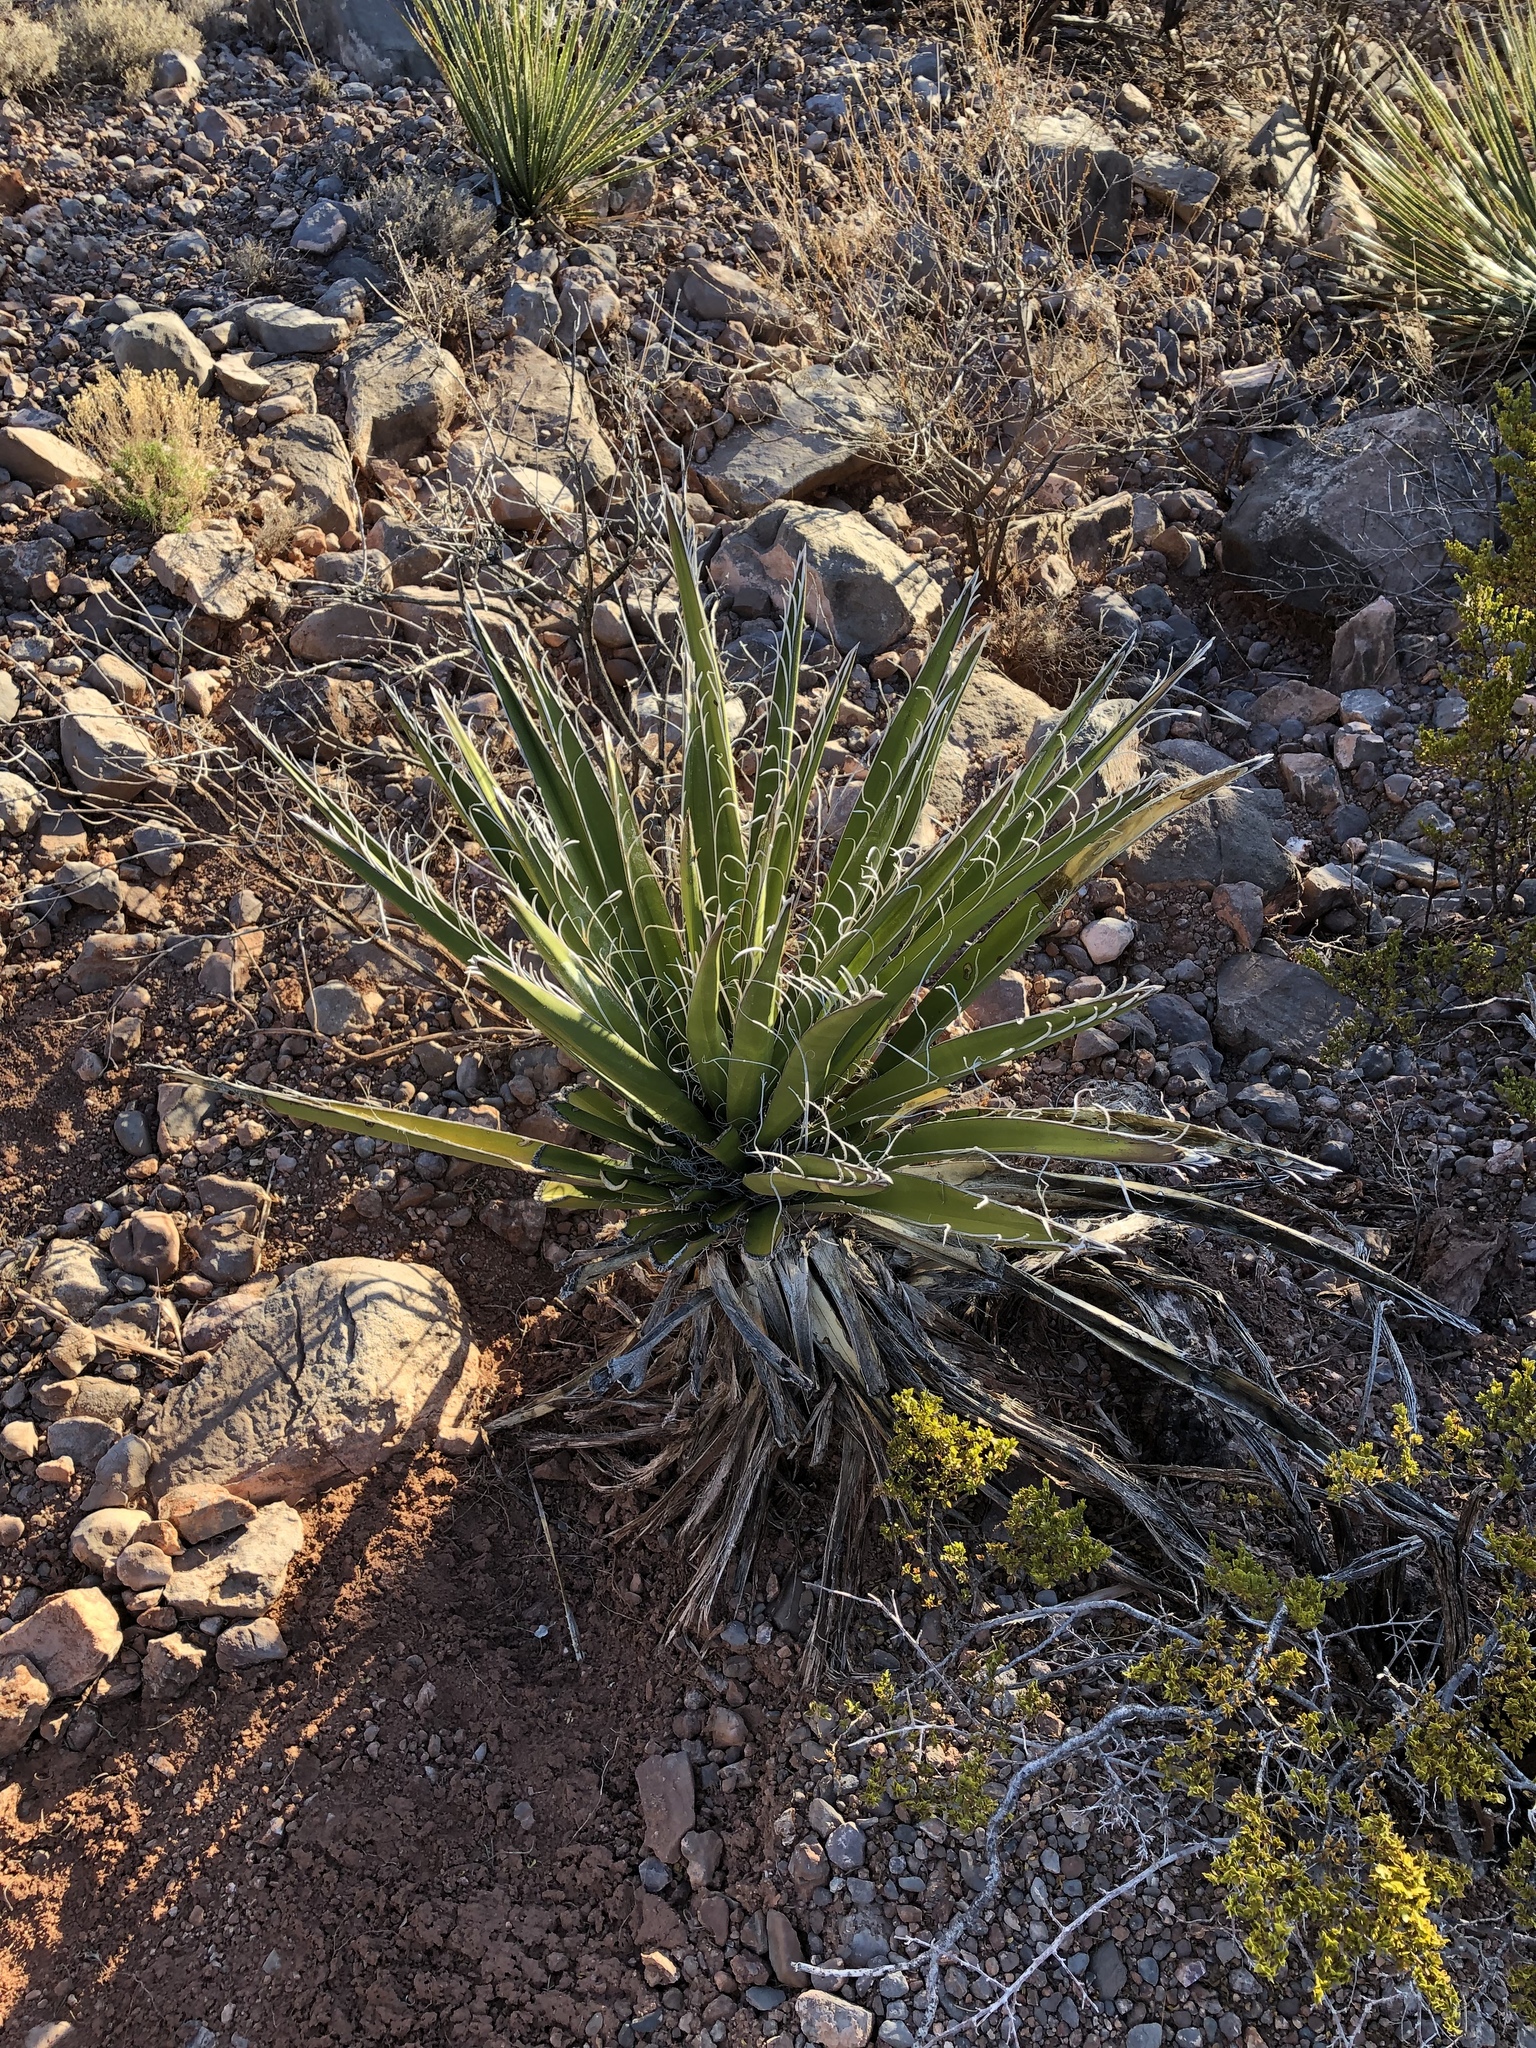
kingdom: Plantae
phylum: Tracheophyta
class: Liliopsida
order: Asparagales
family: Asparagaceae
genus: Yucca
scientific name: Yucca baccata
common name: Banana yucca
